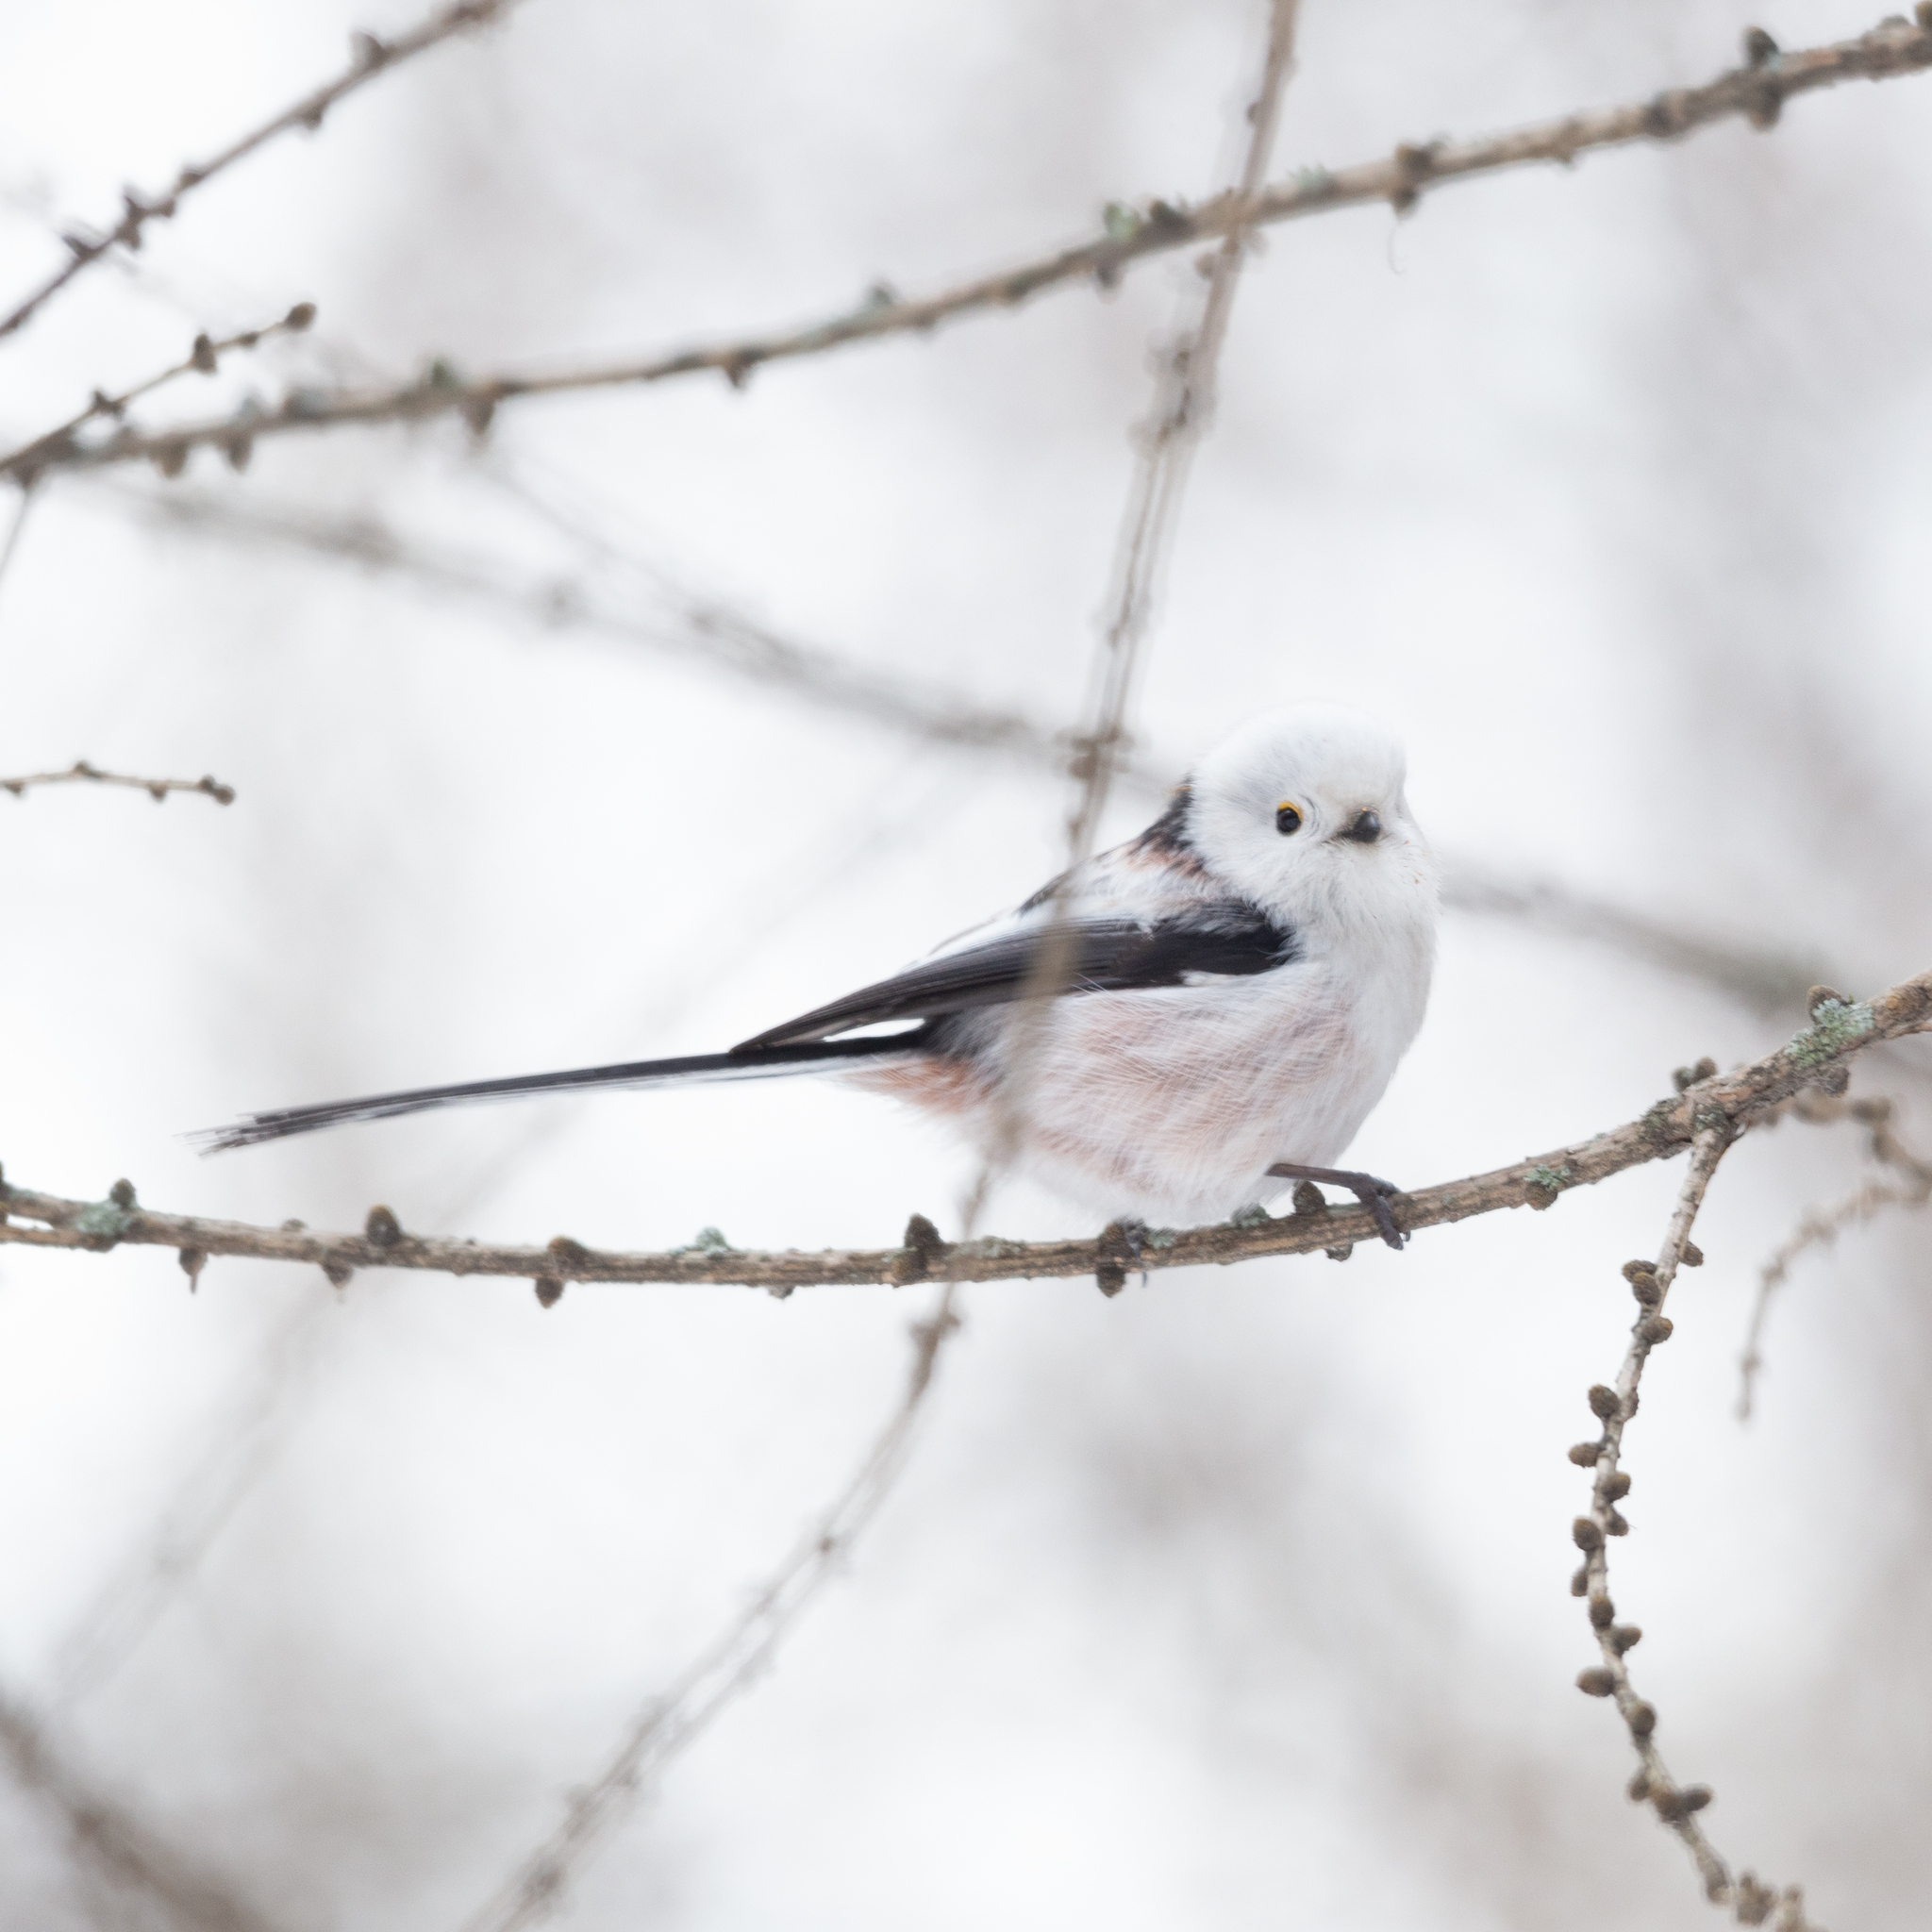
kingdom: Animalia
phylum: Chordata
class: Aves
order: Passeriformes
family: Aegithalidae
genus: Aegithalos
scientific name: Aegithalos caudatus
